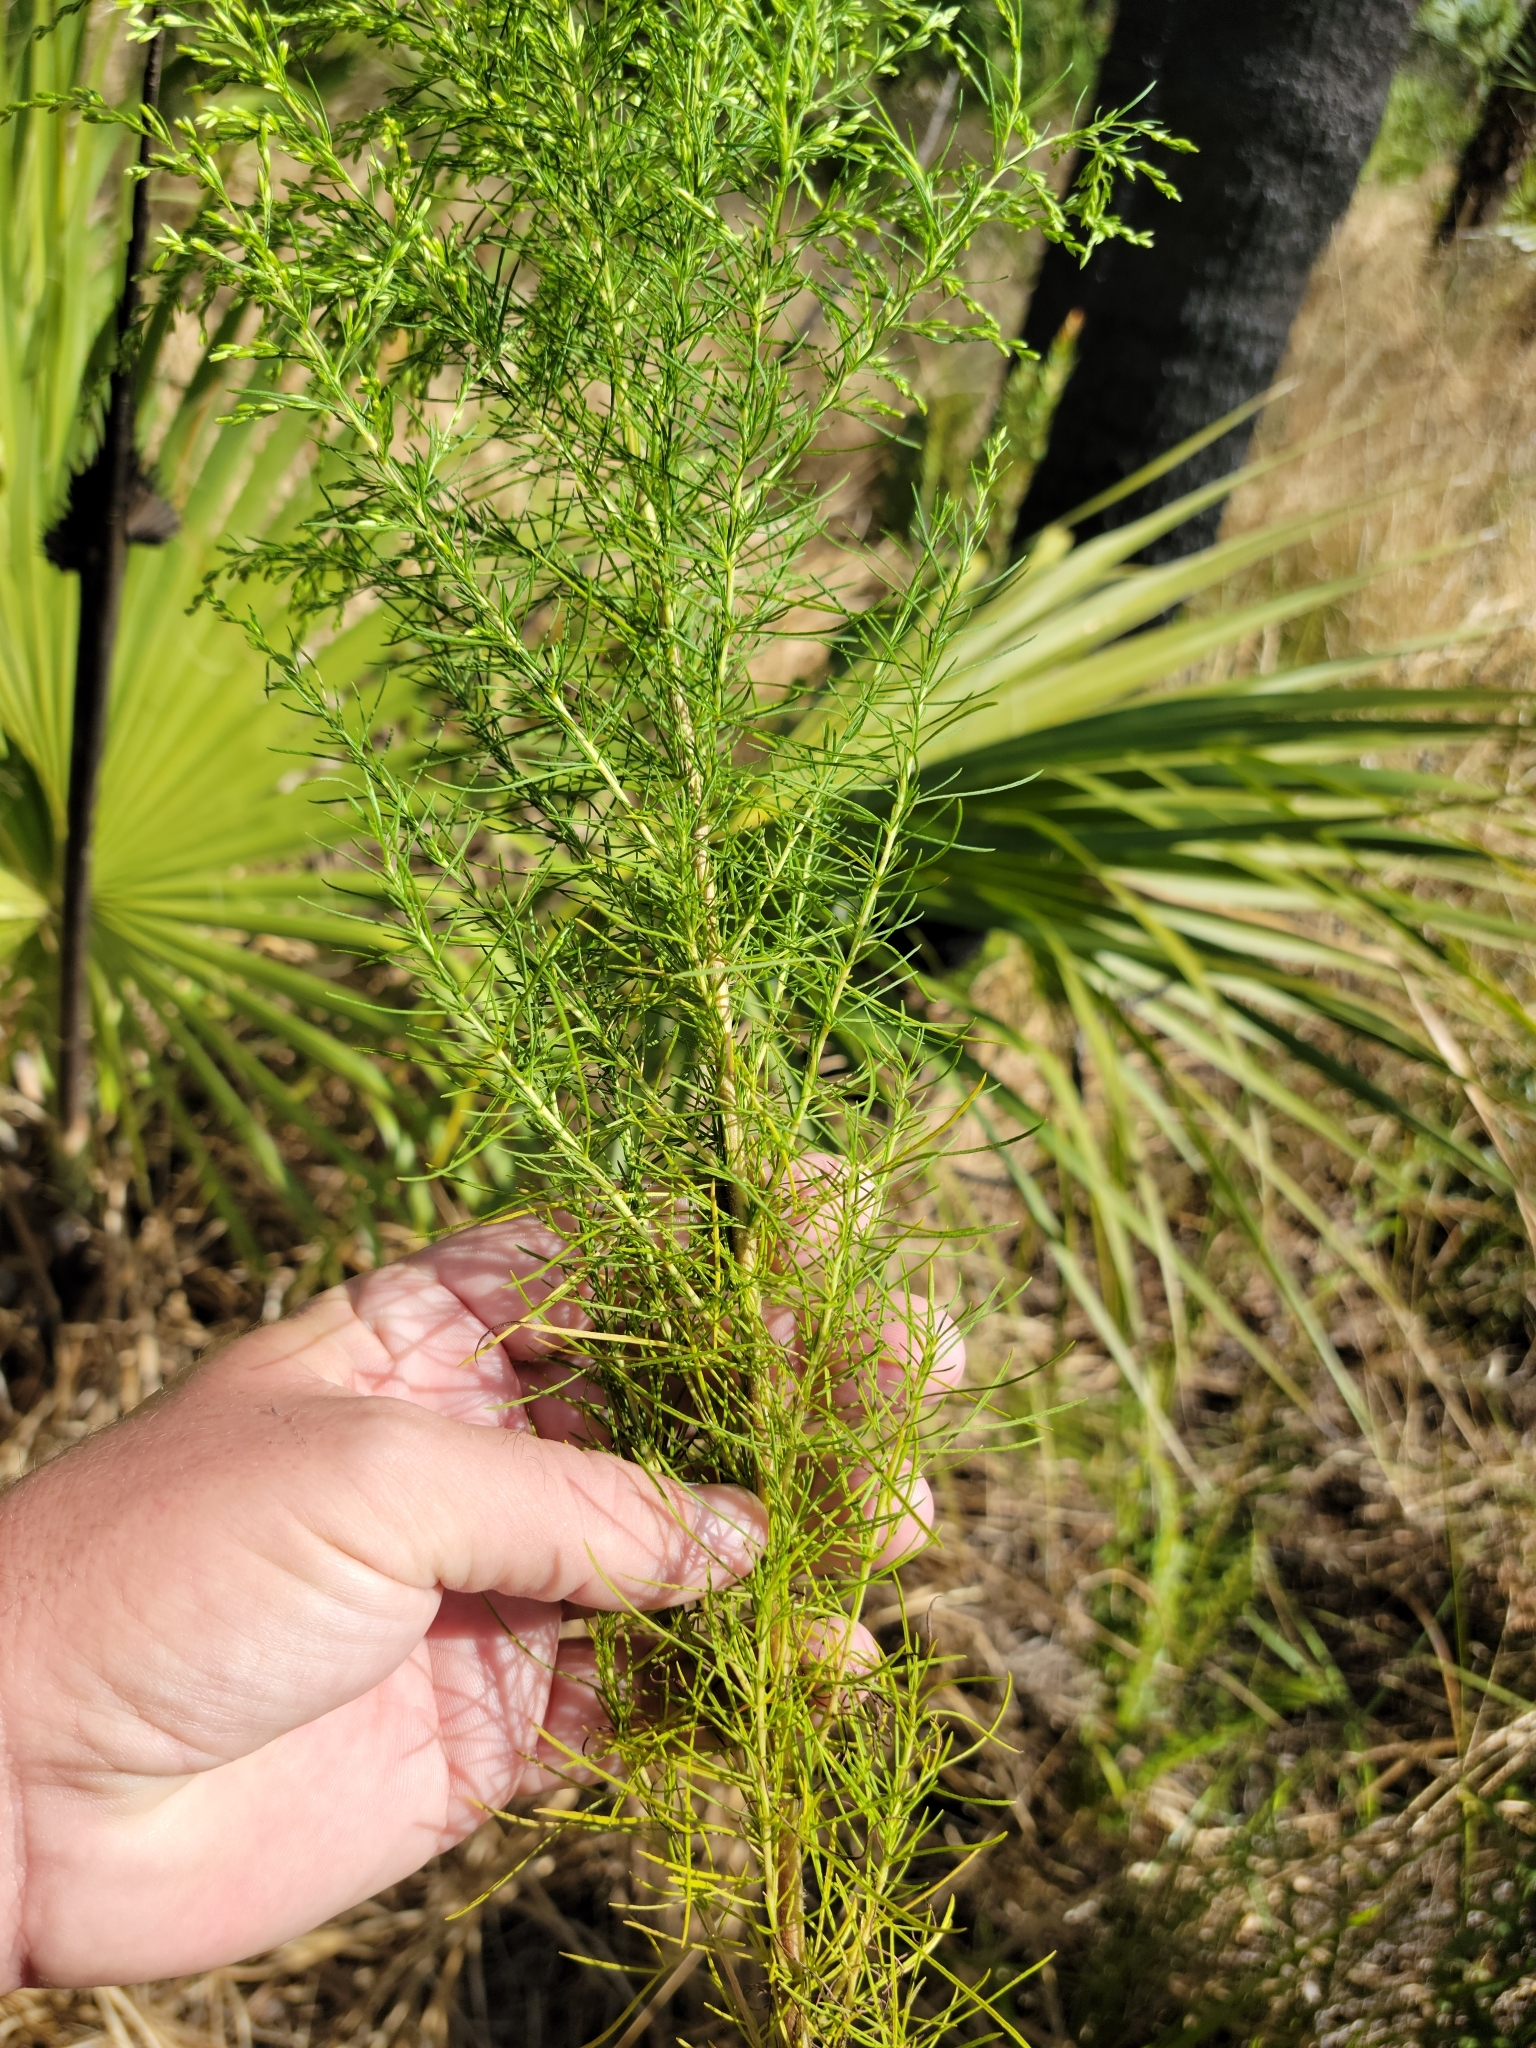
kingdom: Plantae
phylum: Tracheophyta
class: Magnoliopsida
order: Asterales
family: Asteraceae
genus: Eupatorium
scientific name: Eupatorium capillifolium
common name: Dog-fennel
